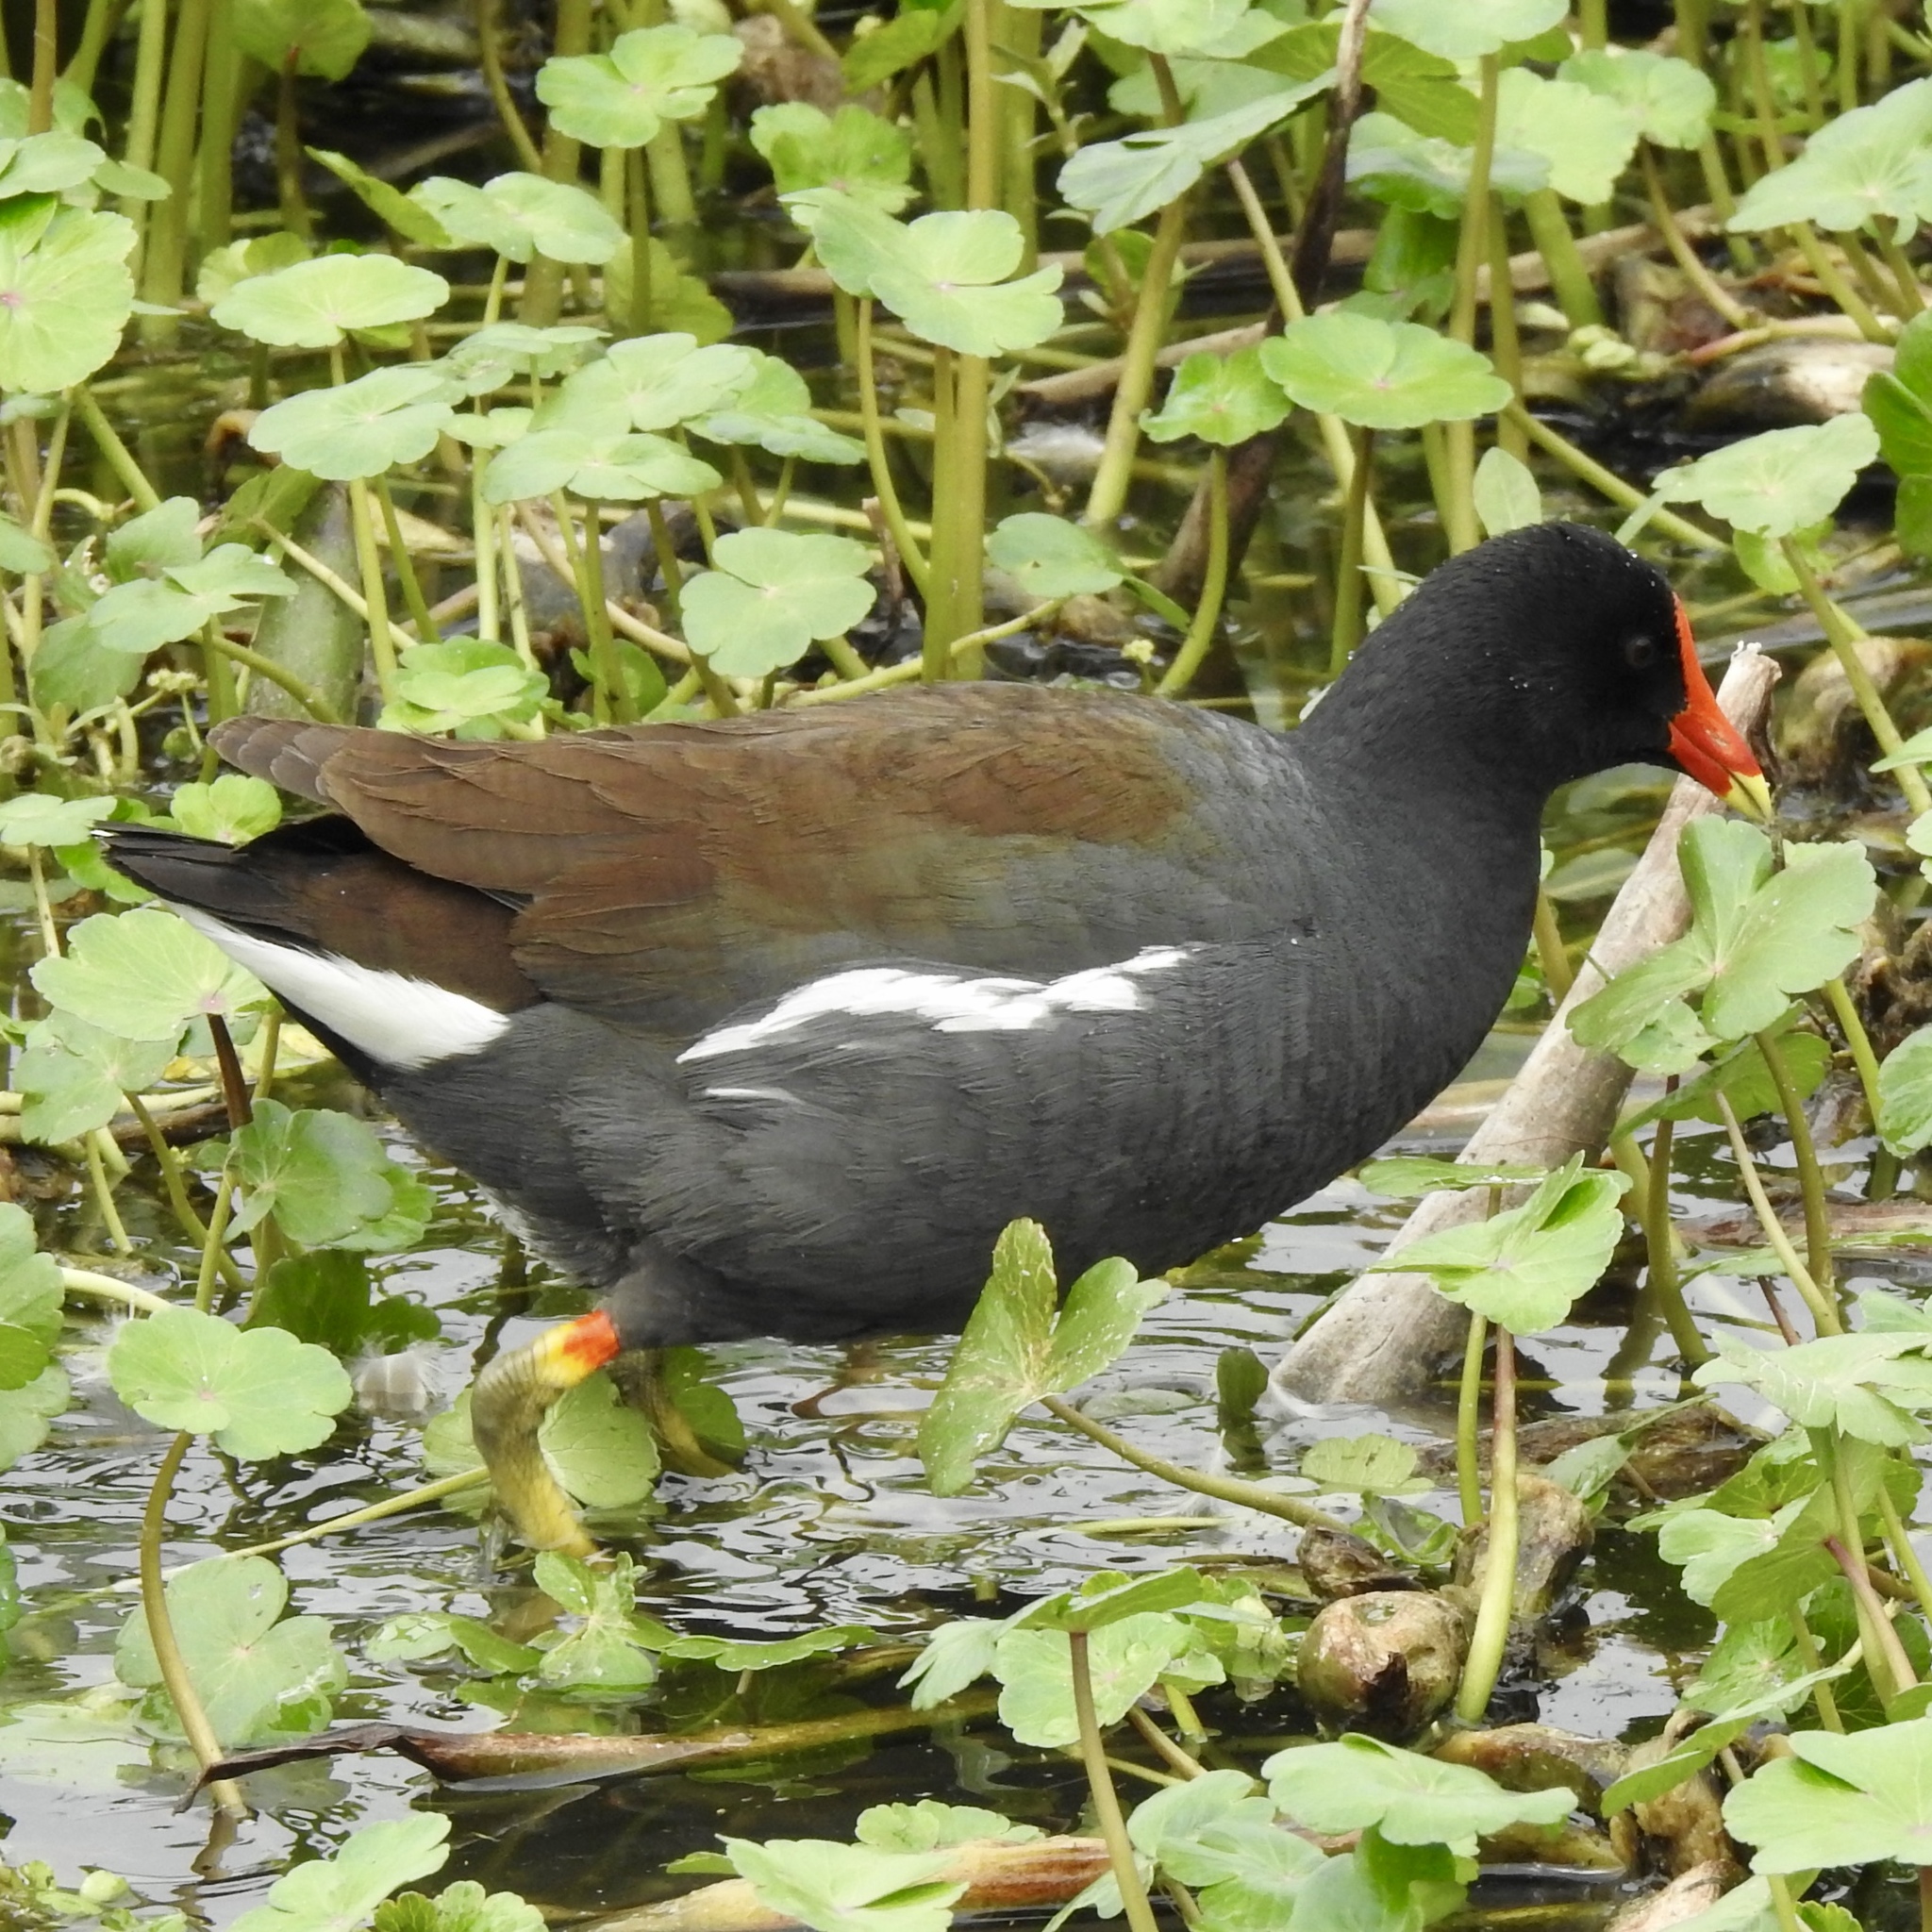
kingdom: Animalia
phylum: Chordata
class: Aves
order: Gruiformes
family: Rallidae
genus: Gallinula
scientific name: Gallinula chloropus
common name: Common moorhen
